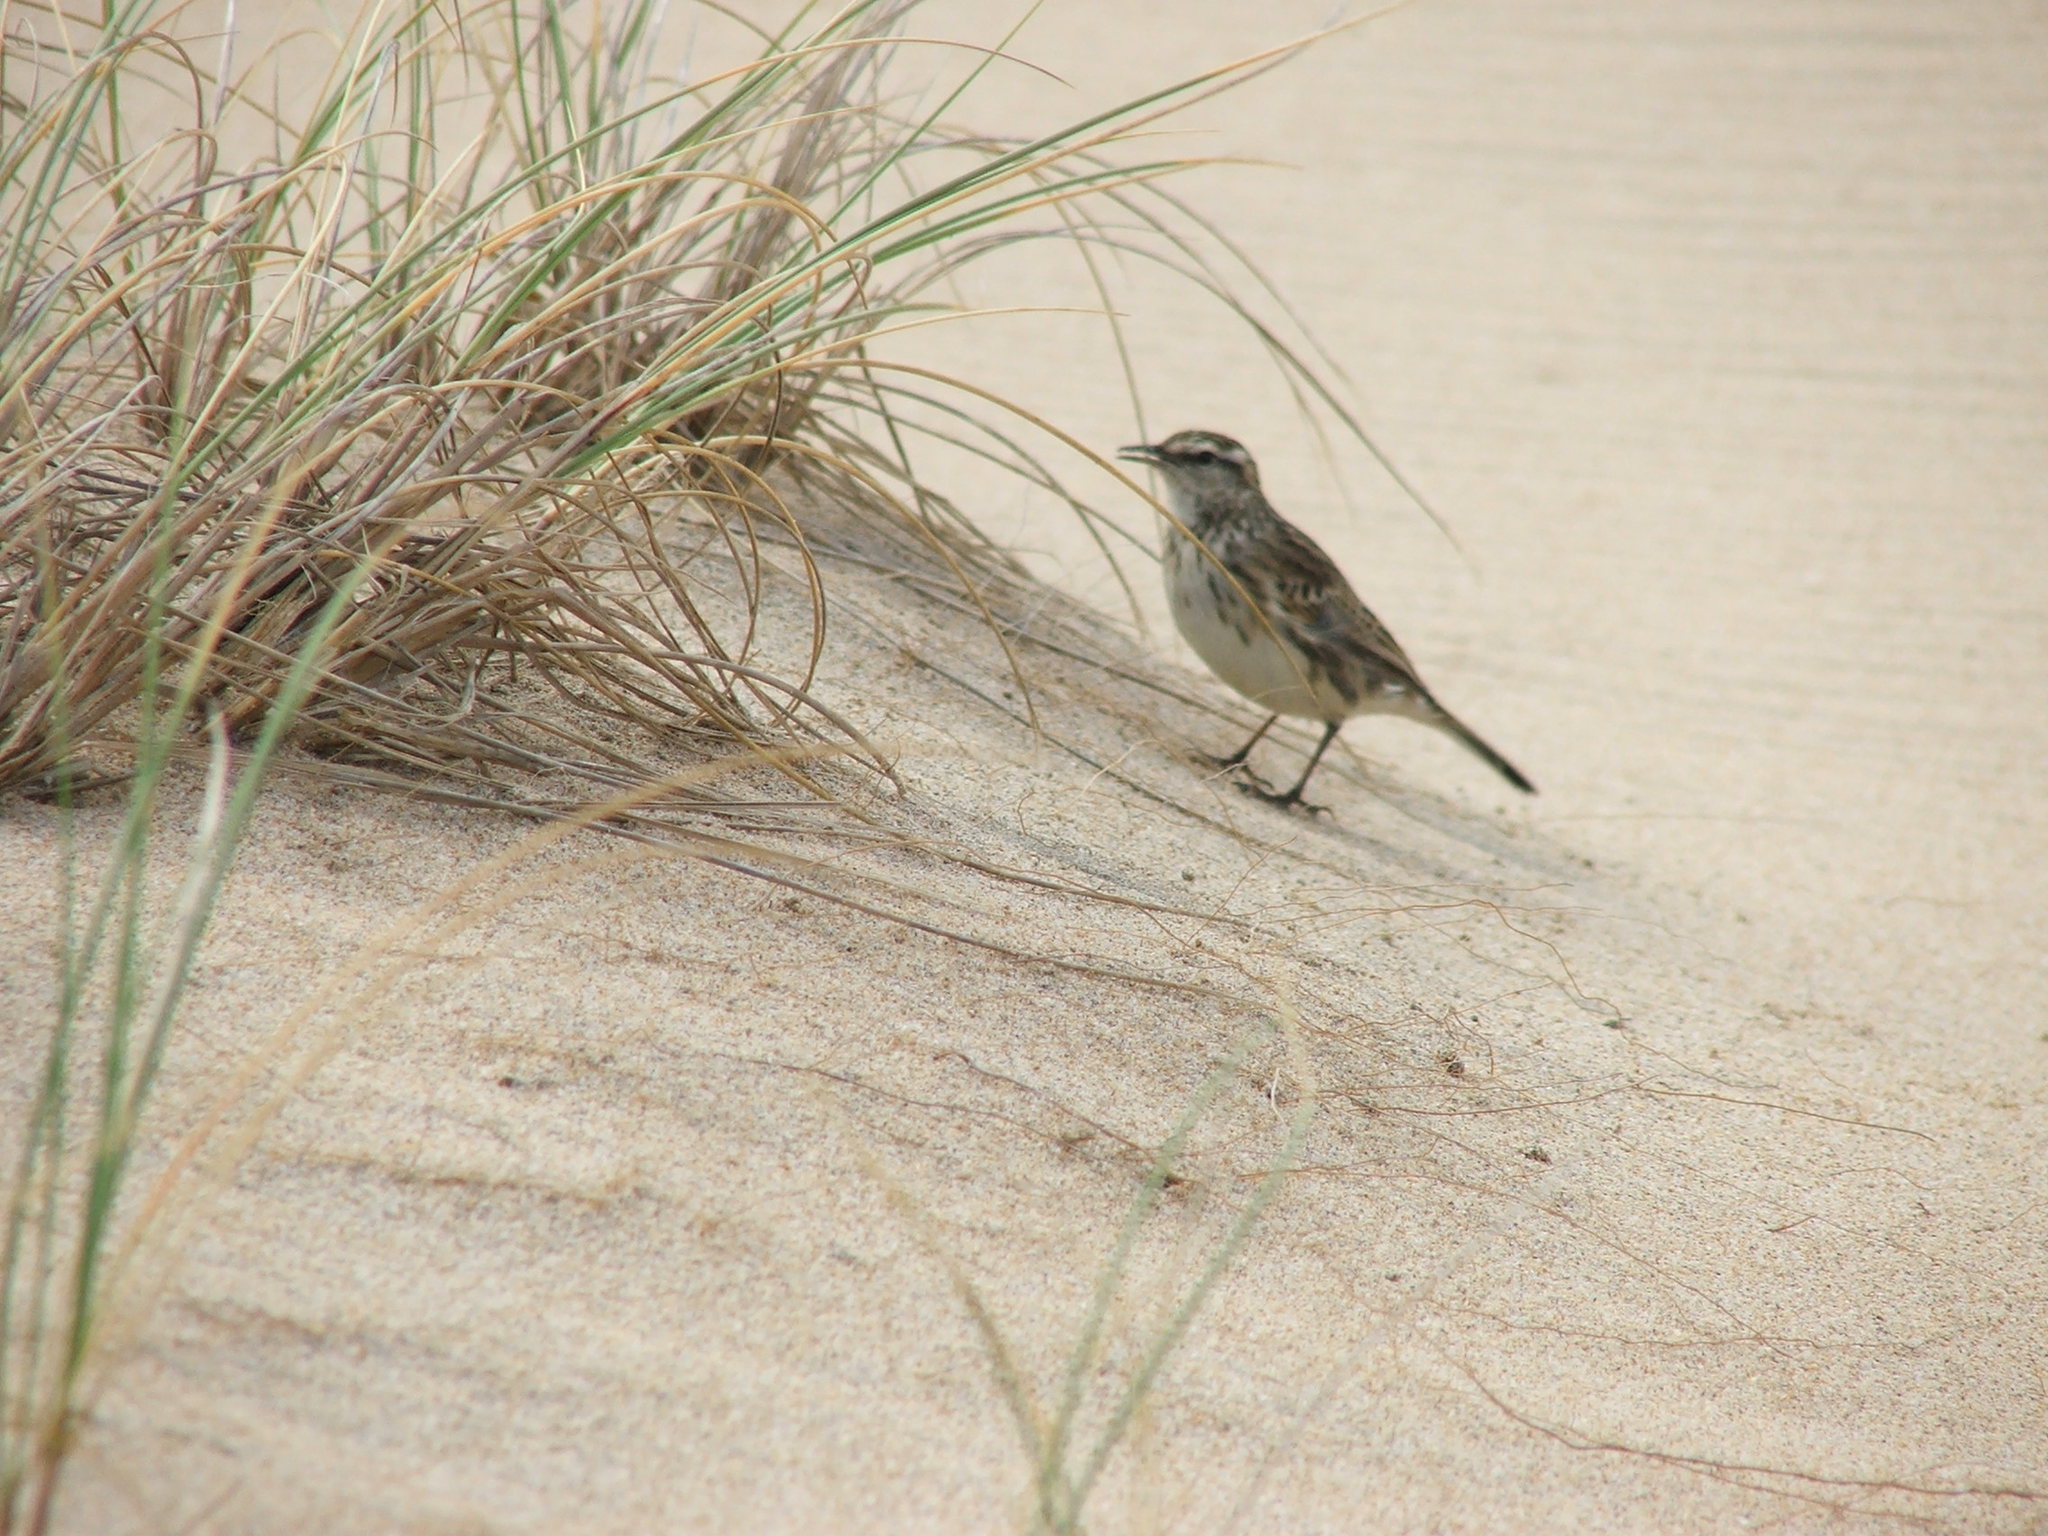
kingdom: Animalia
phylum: Chordata
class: Aves
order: Passeriformes
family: Motacillidae
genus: Anthus
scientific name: Anthus novaeseelandiae
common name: New zealand pipit
